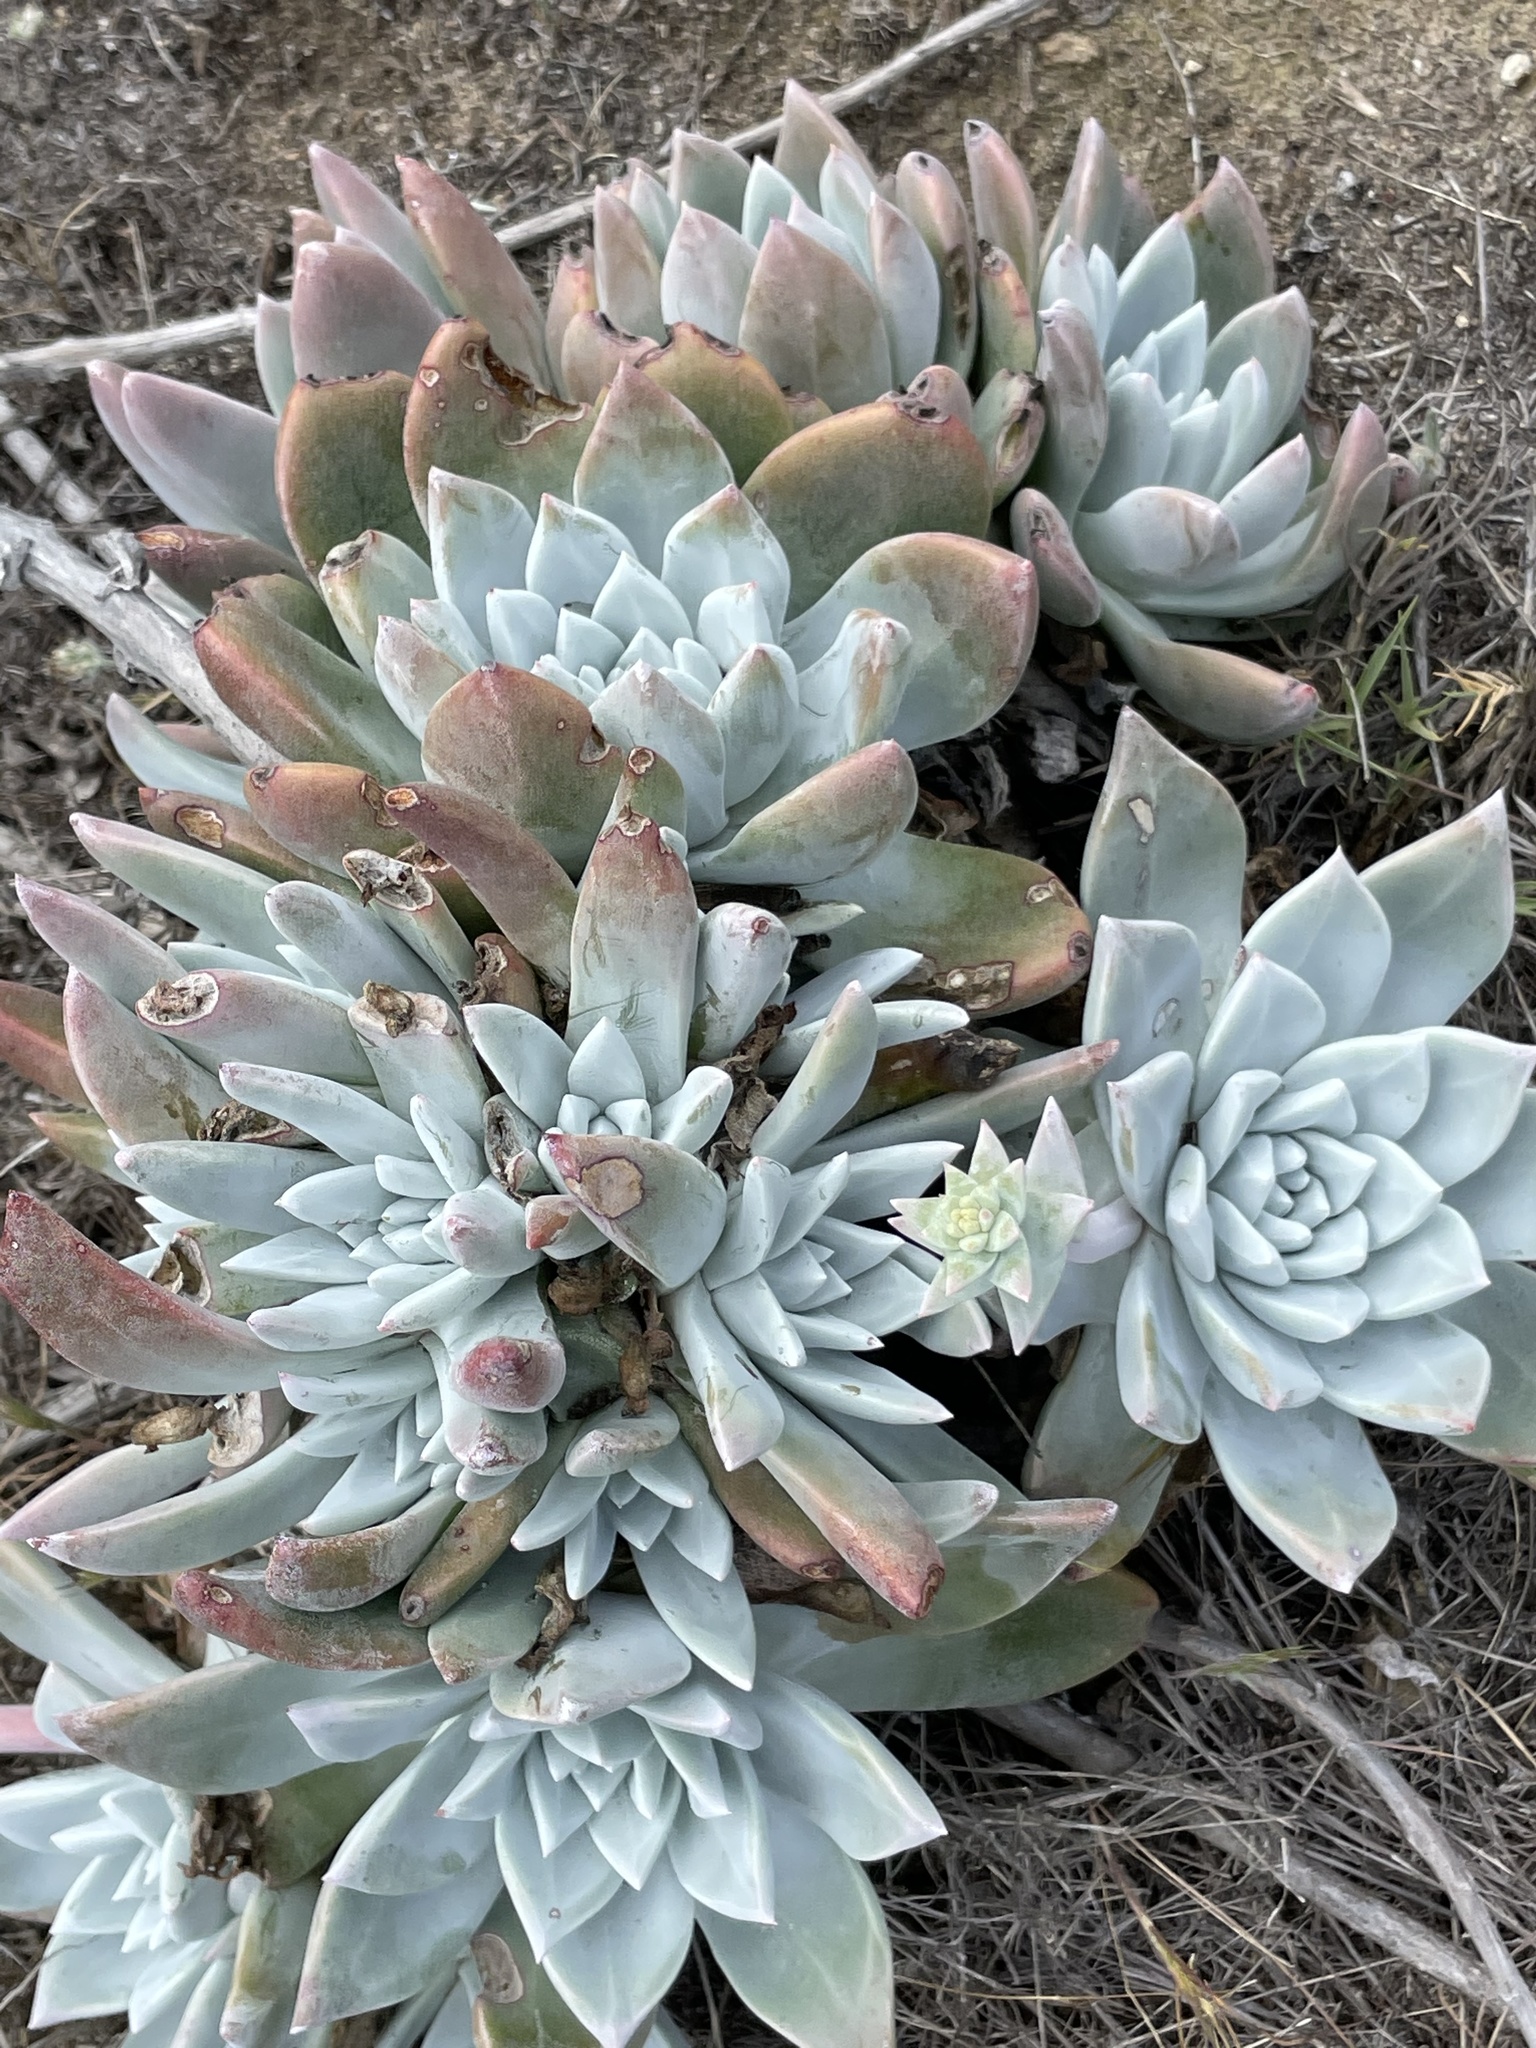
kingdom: Plantae
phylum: Tracheophyta
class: Magnoliopsida
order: Saxifragales
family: Crassulaceae
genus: Dudleya
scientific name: Dudleya greenei
